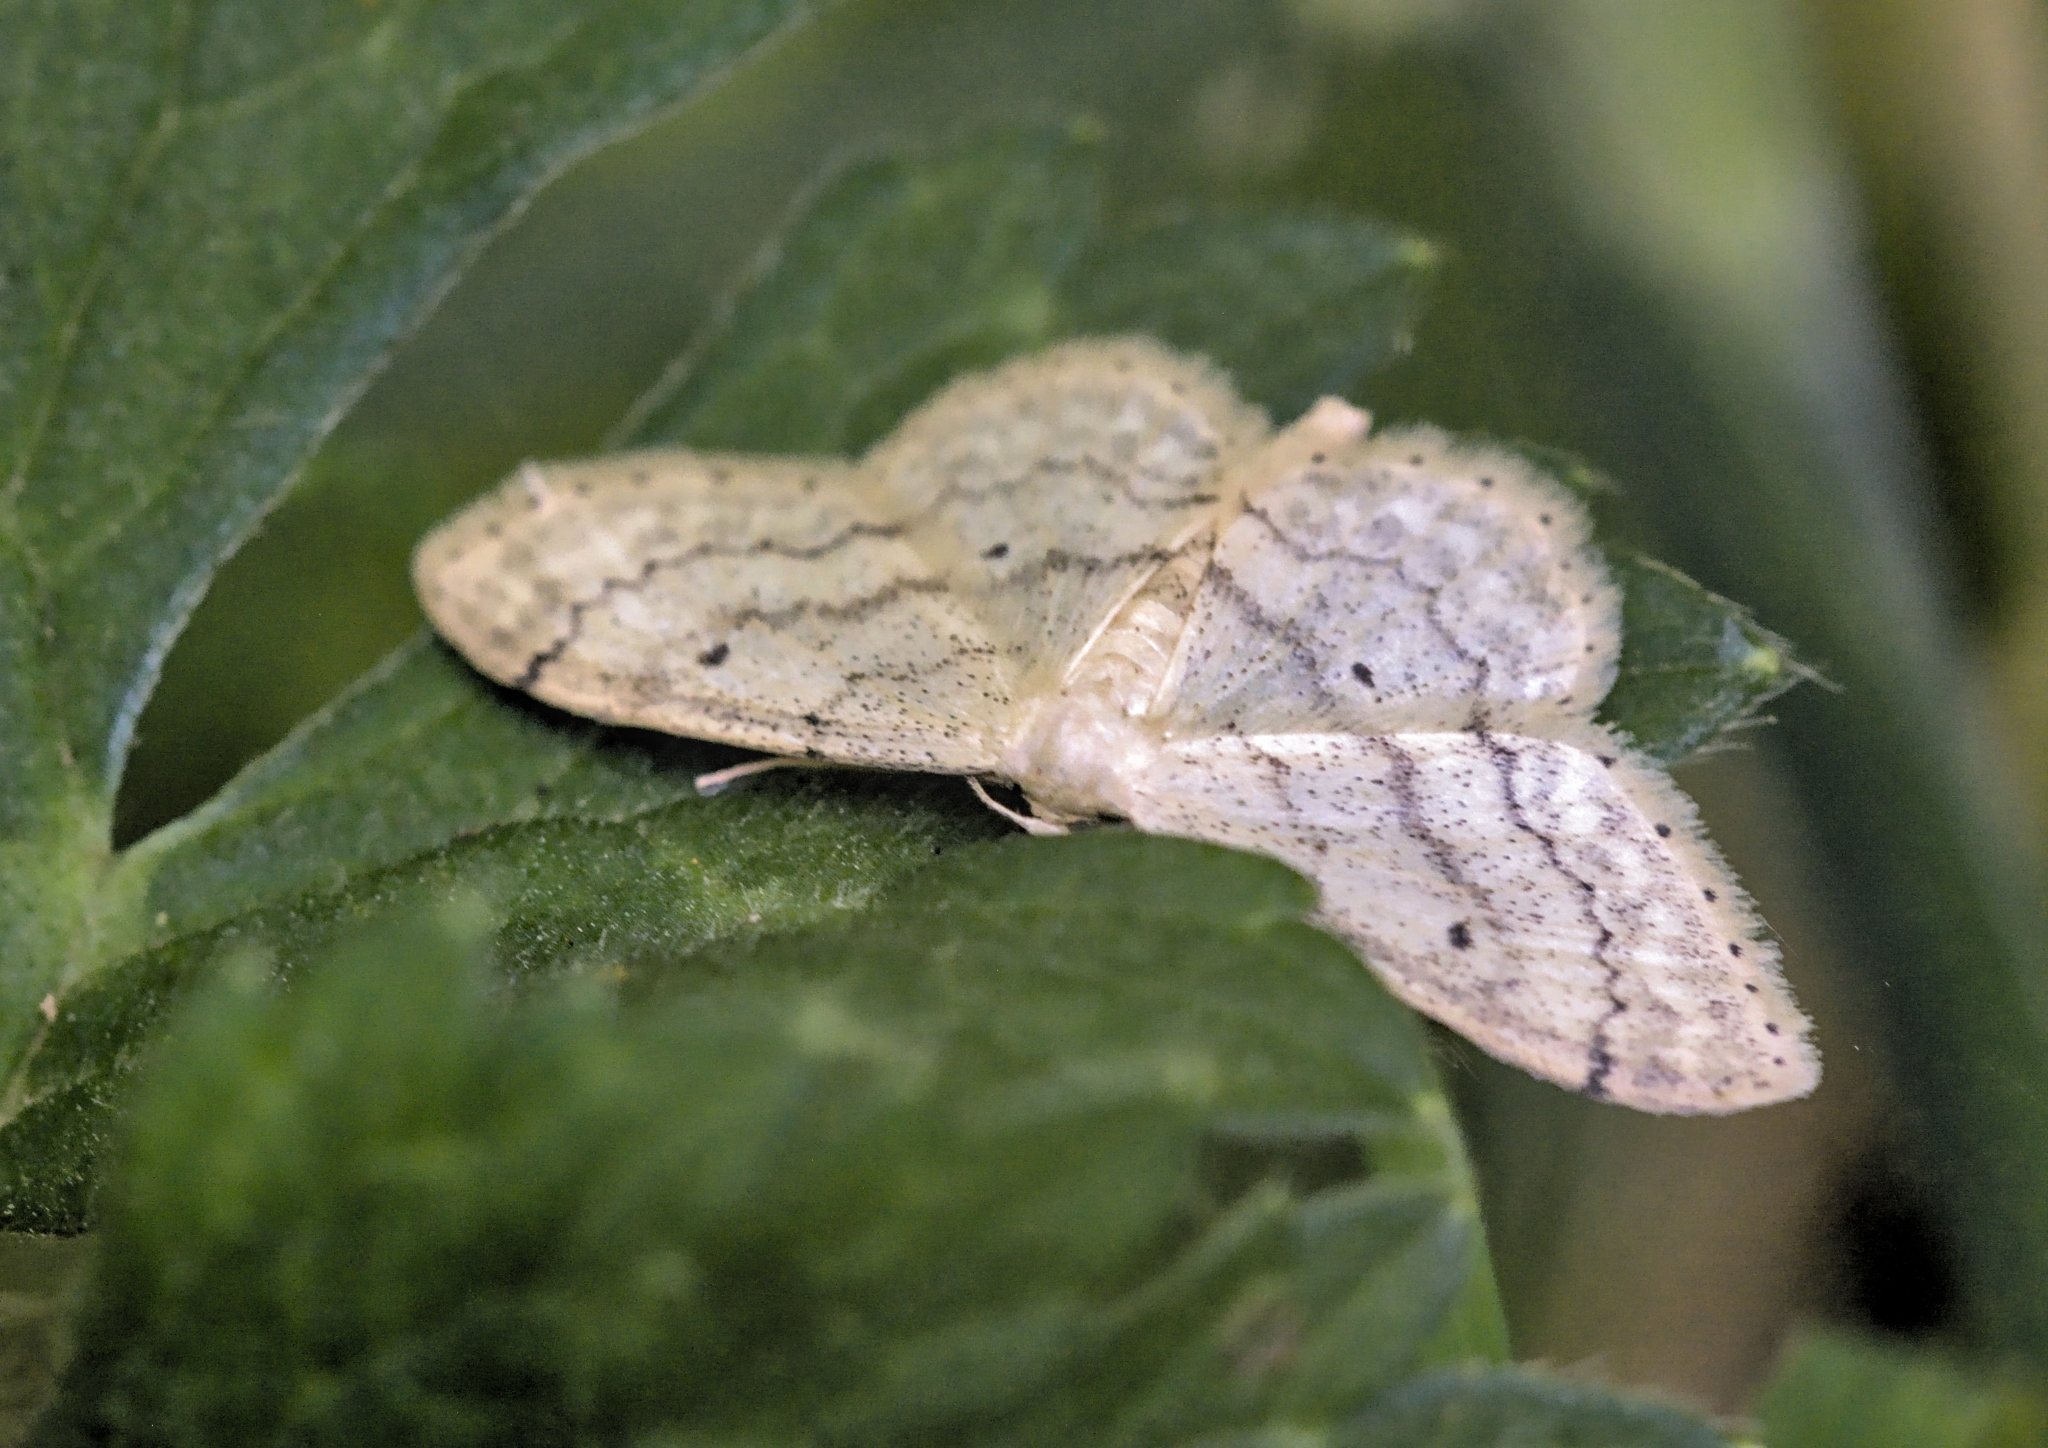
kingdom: Animalia
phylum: Arthropoda
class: Insecta
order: Lepidoptera
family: Geometridae
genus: Idaea
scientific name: Idaea biselata
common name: Small fan-footed wave
